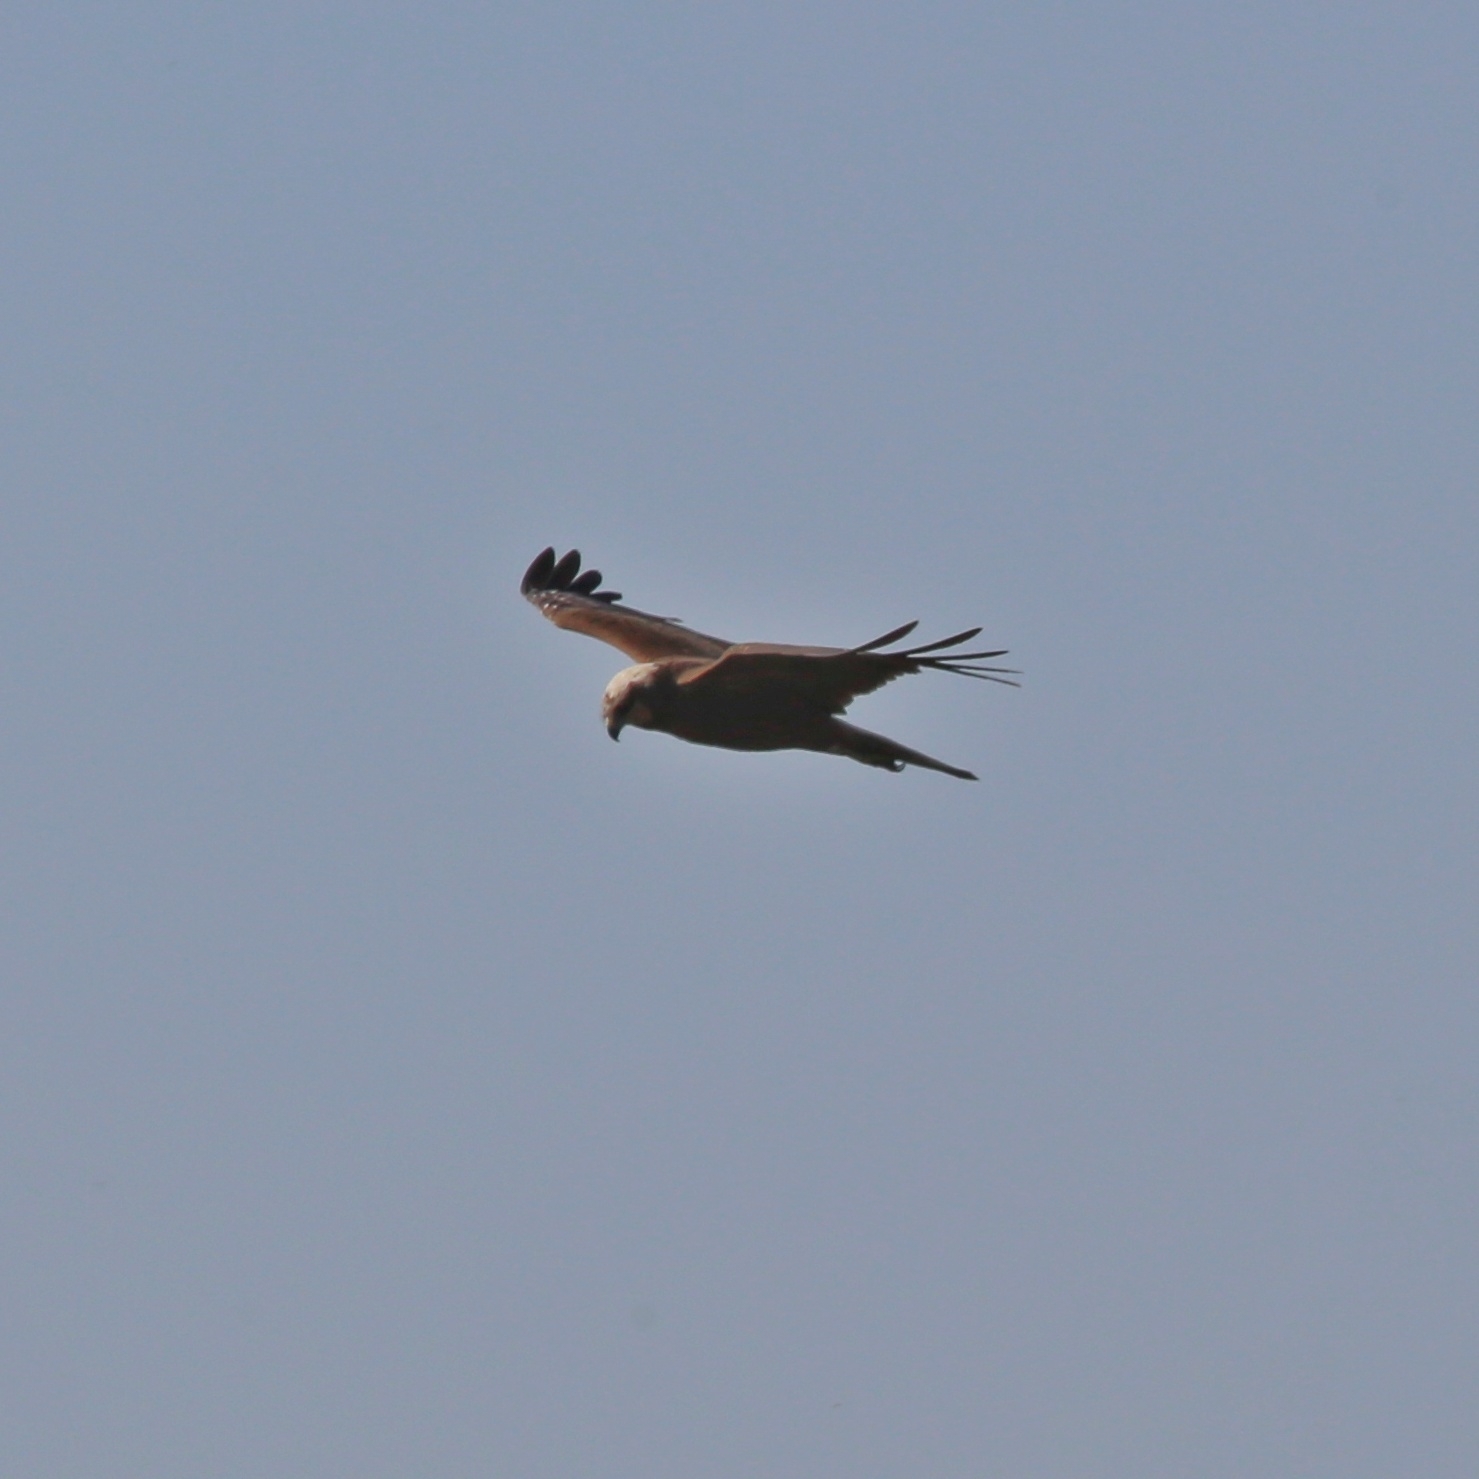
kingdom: Animalia
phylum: Chordata
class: Aves
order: Accipitriformes
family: Accipitridae
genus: Circus
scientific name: Circus aeruginosus
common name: Western marsh harrier
